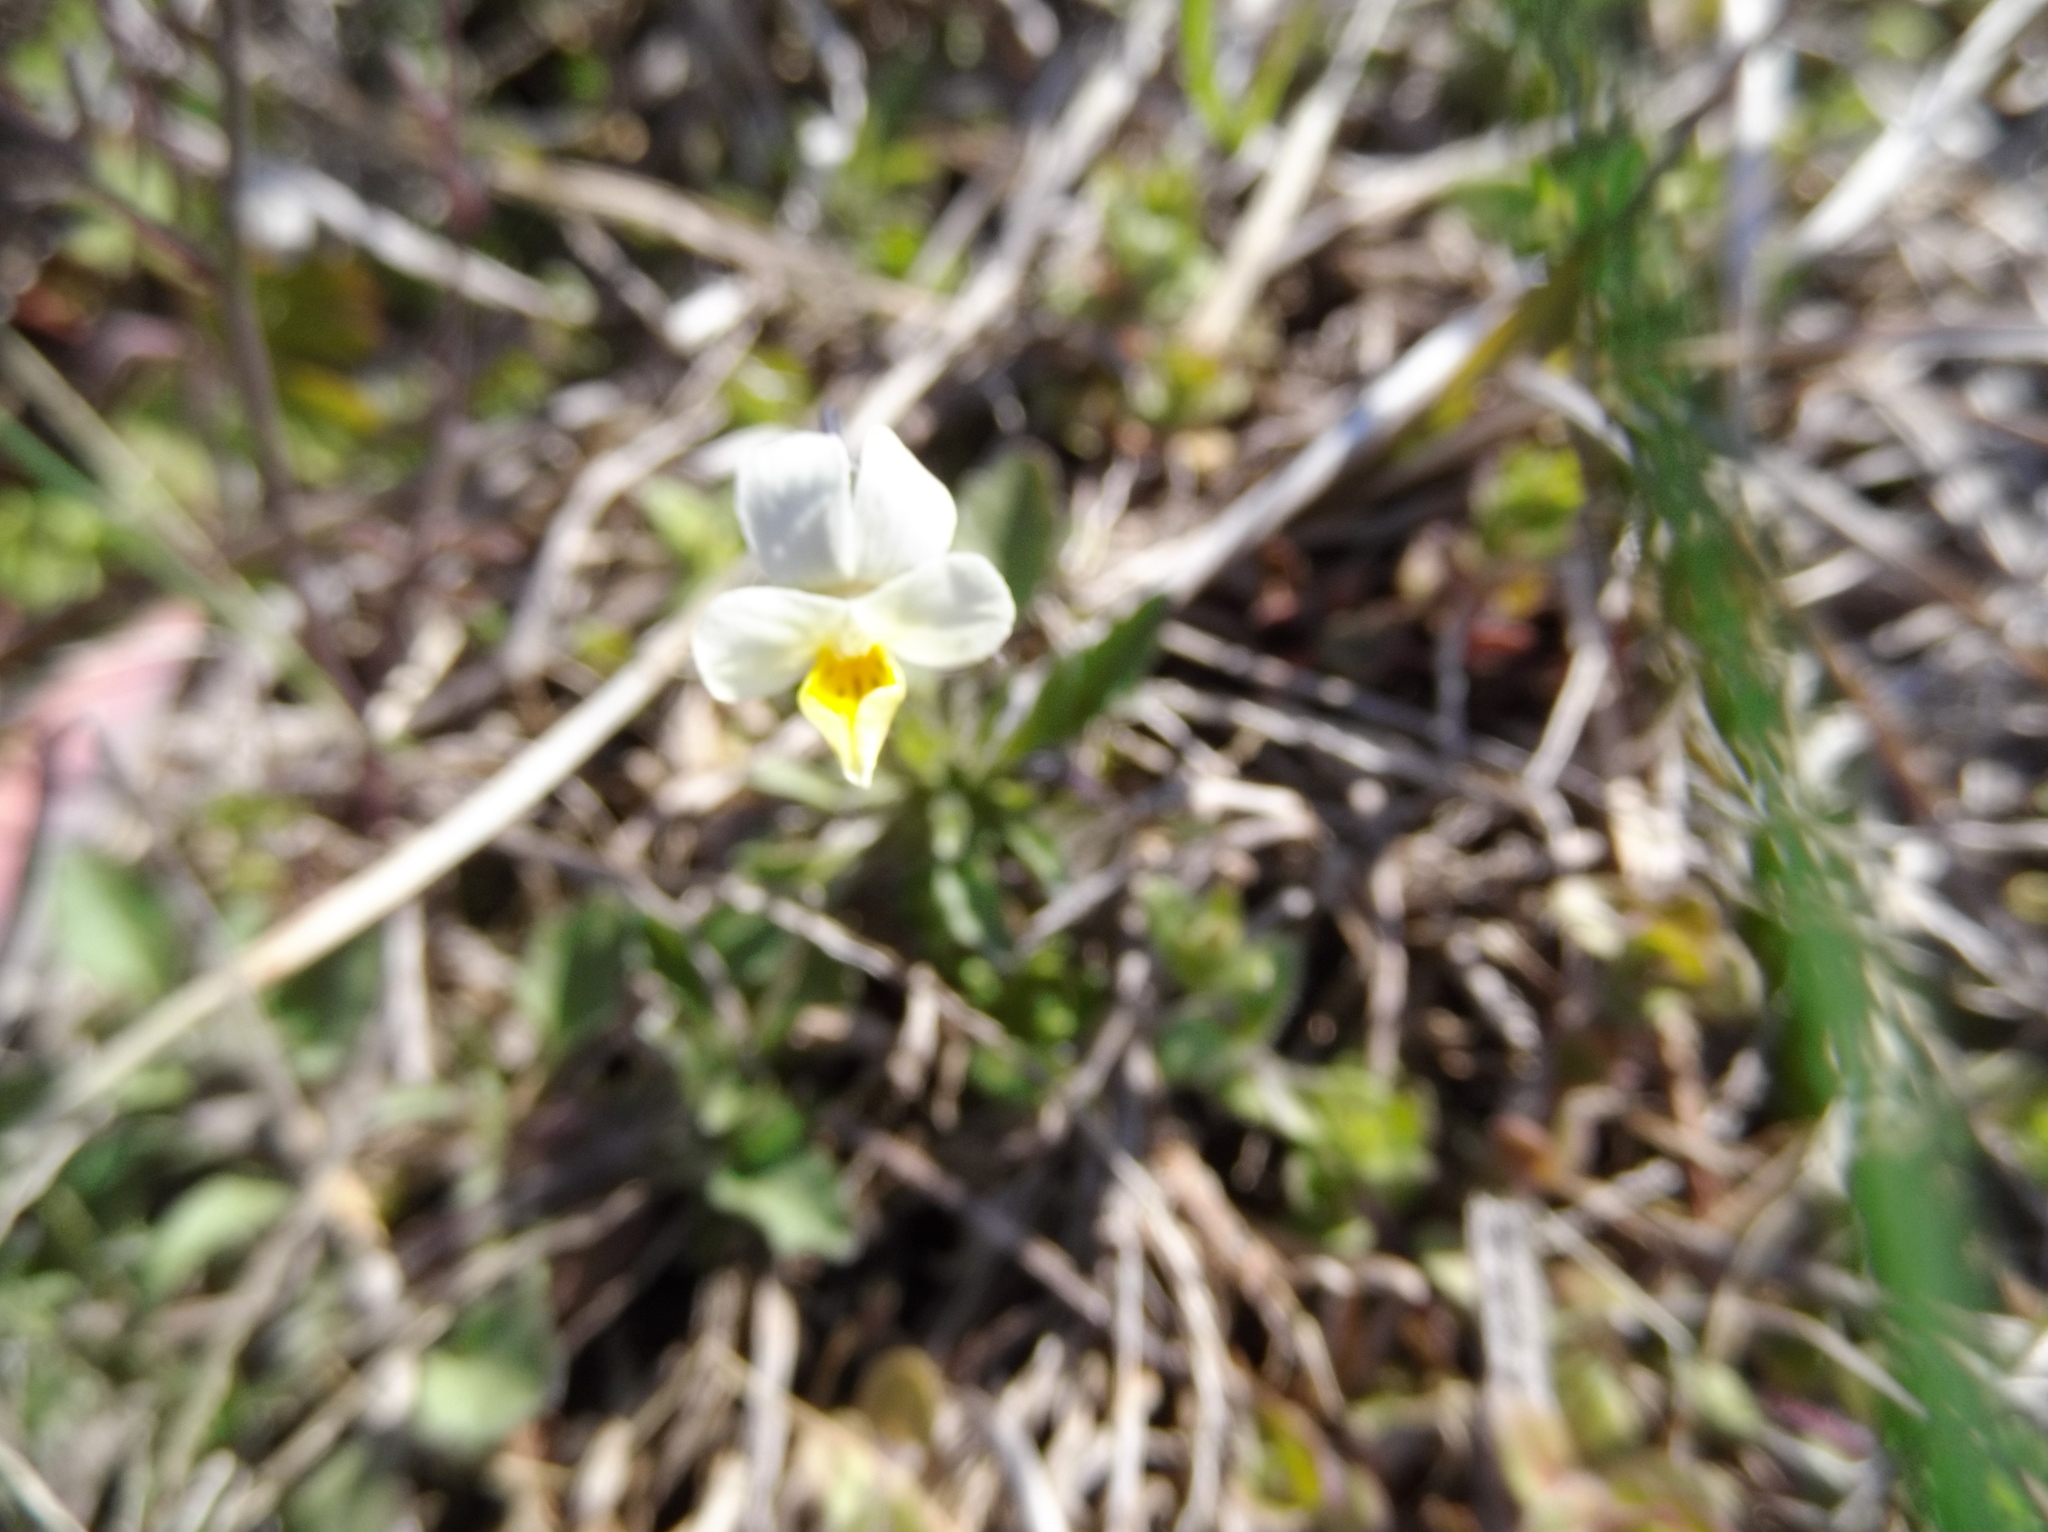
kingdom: Plantae
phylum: Tracheophyta
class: Magnoliopsida
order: Malpighiales
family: Violaceae
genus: Viola
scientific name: Viola arvensis
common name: Field pansy
